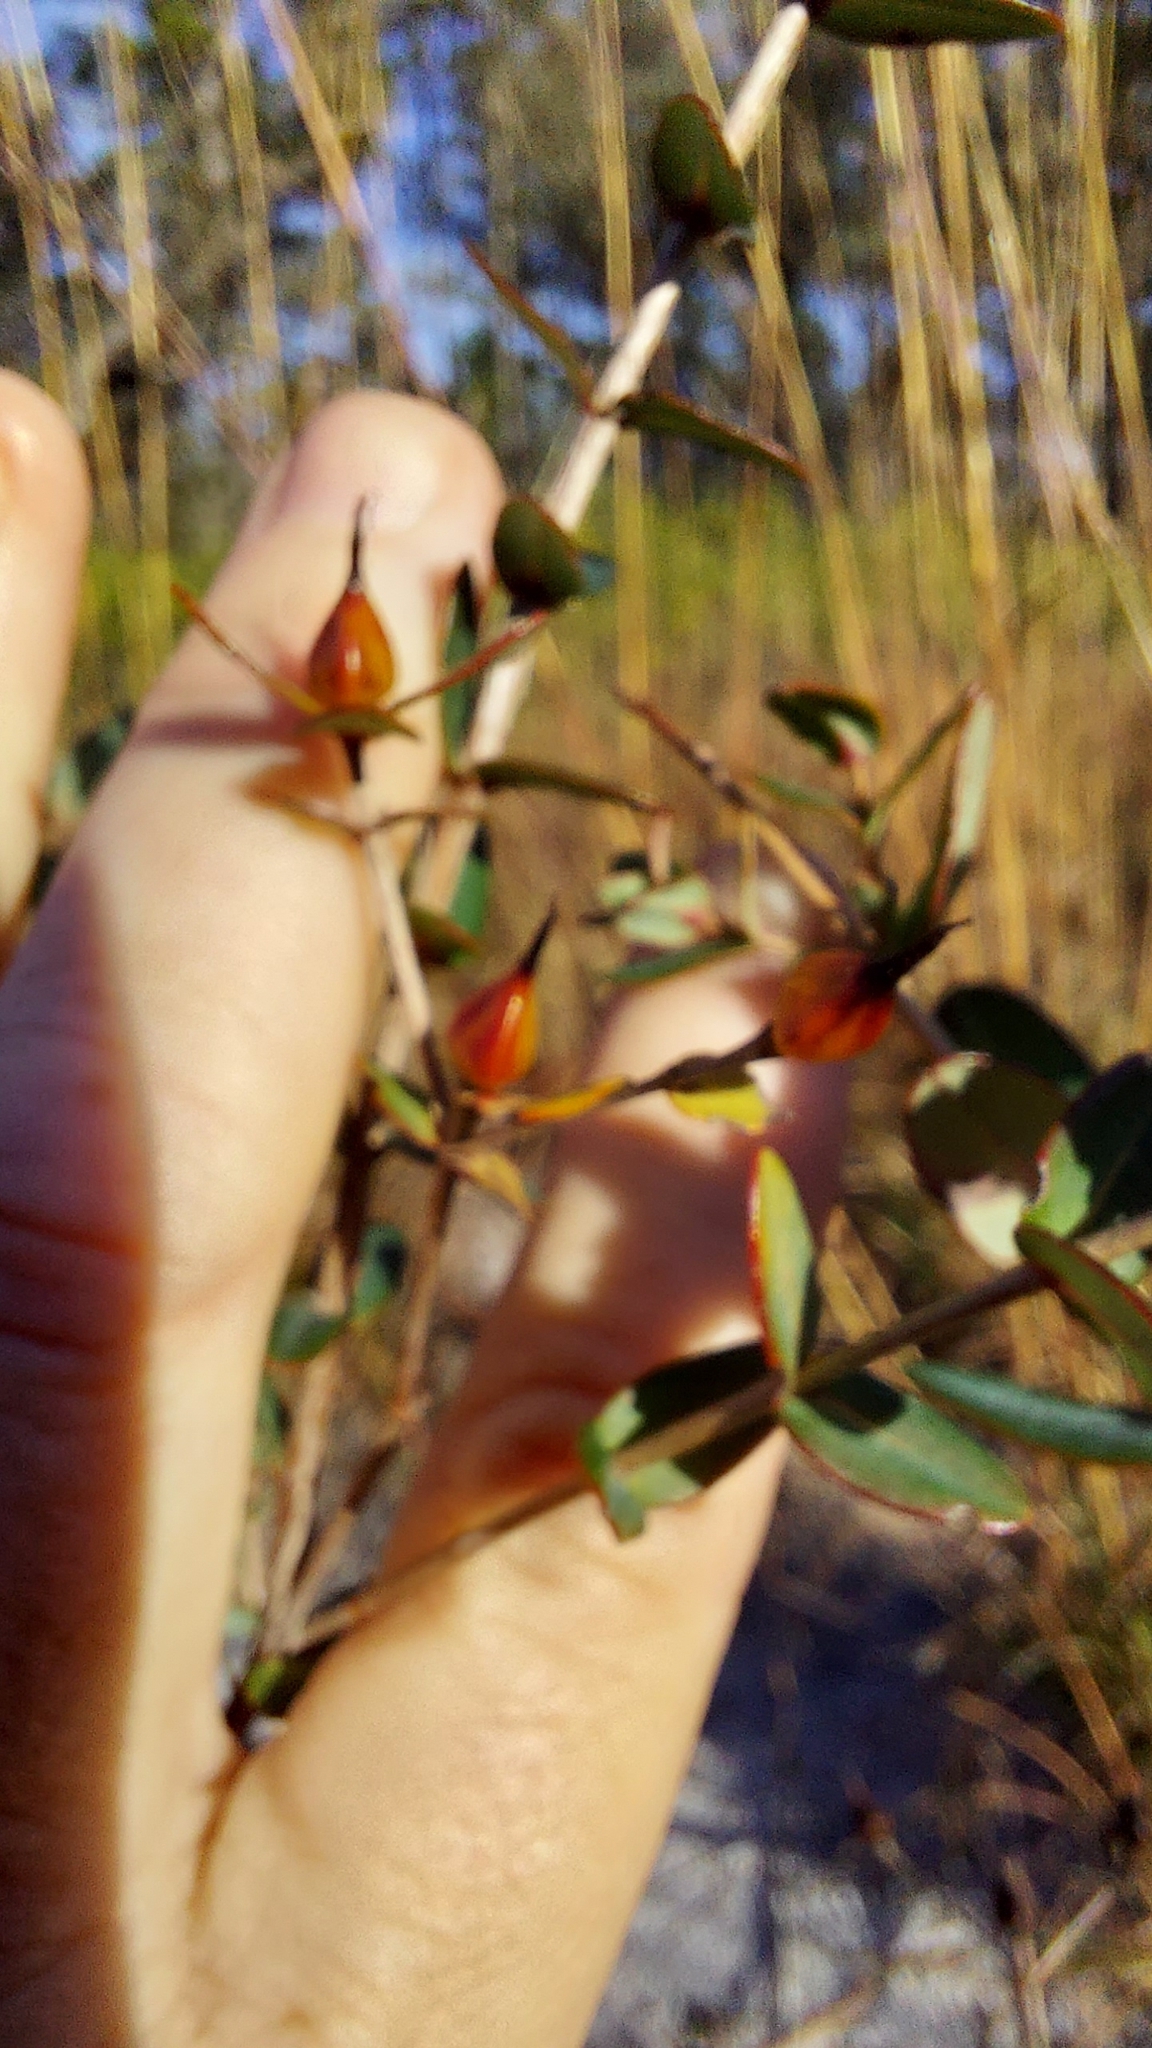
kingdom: Plantae
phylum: Tracheophyta
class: Magnoliopsida
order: Malpighiales
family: Hypericaceae
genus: Hypericum
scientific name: Hypericum myrtifolium
